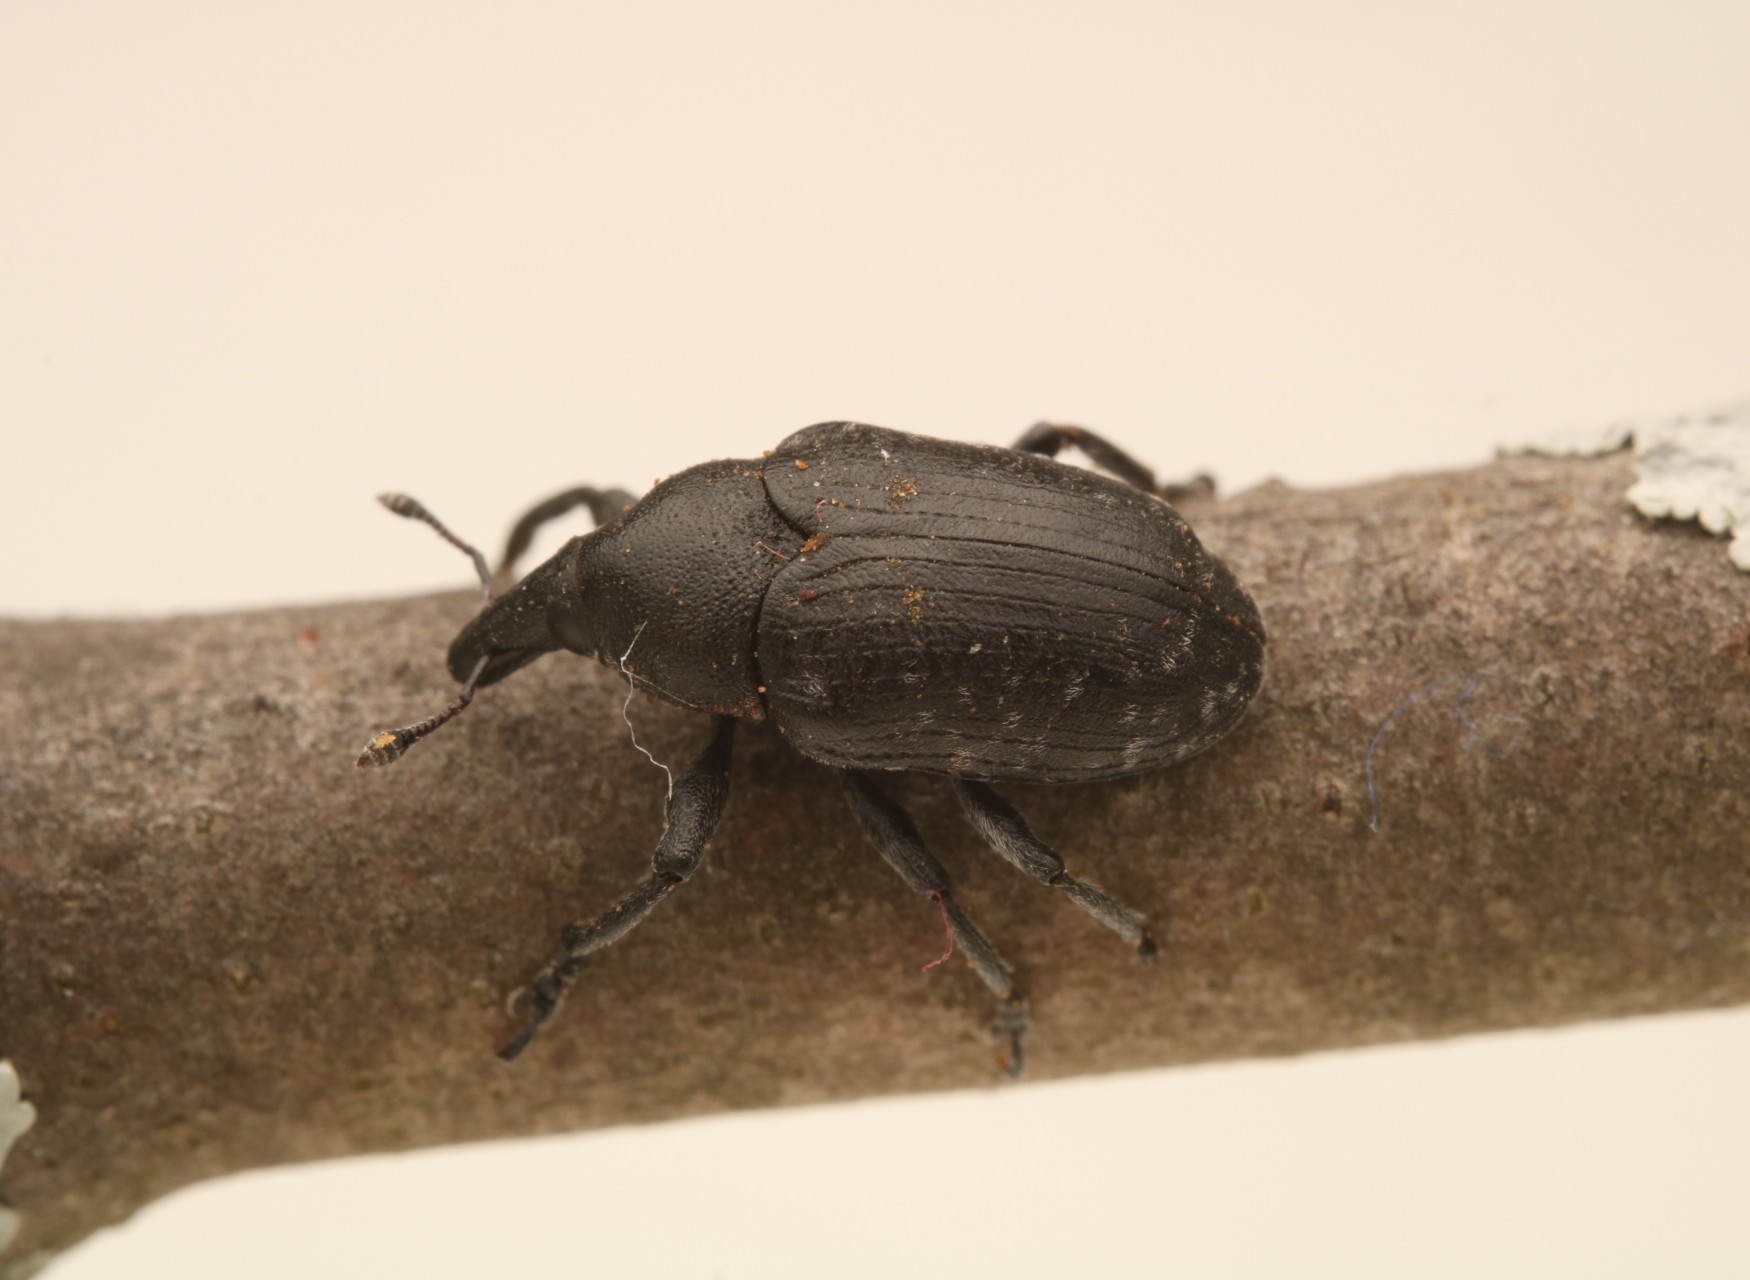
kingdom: Animalia
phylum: Arthropoda
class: Insecta
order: Coleoptera
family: Curculionidae
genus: Larinus
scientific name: Larinus turbinatus
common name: Weevil
